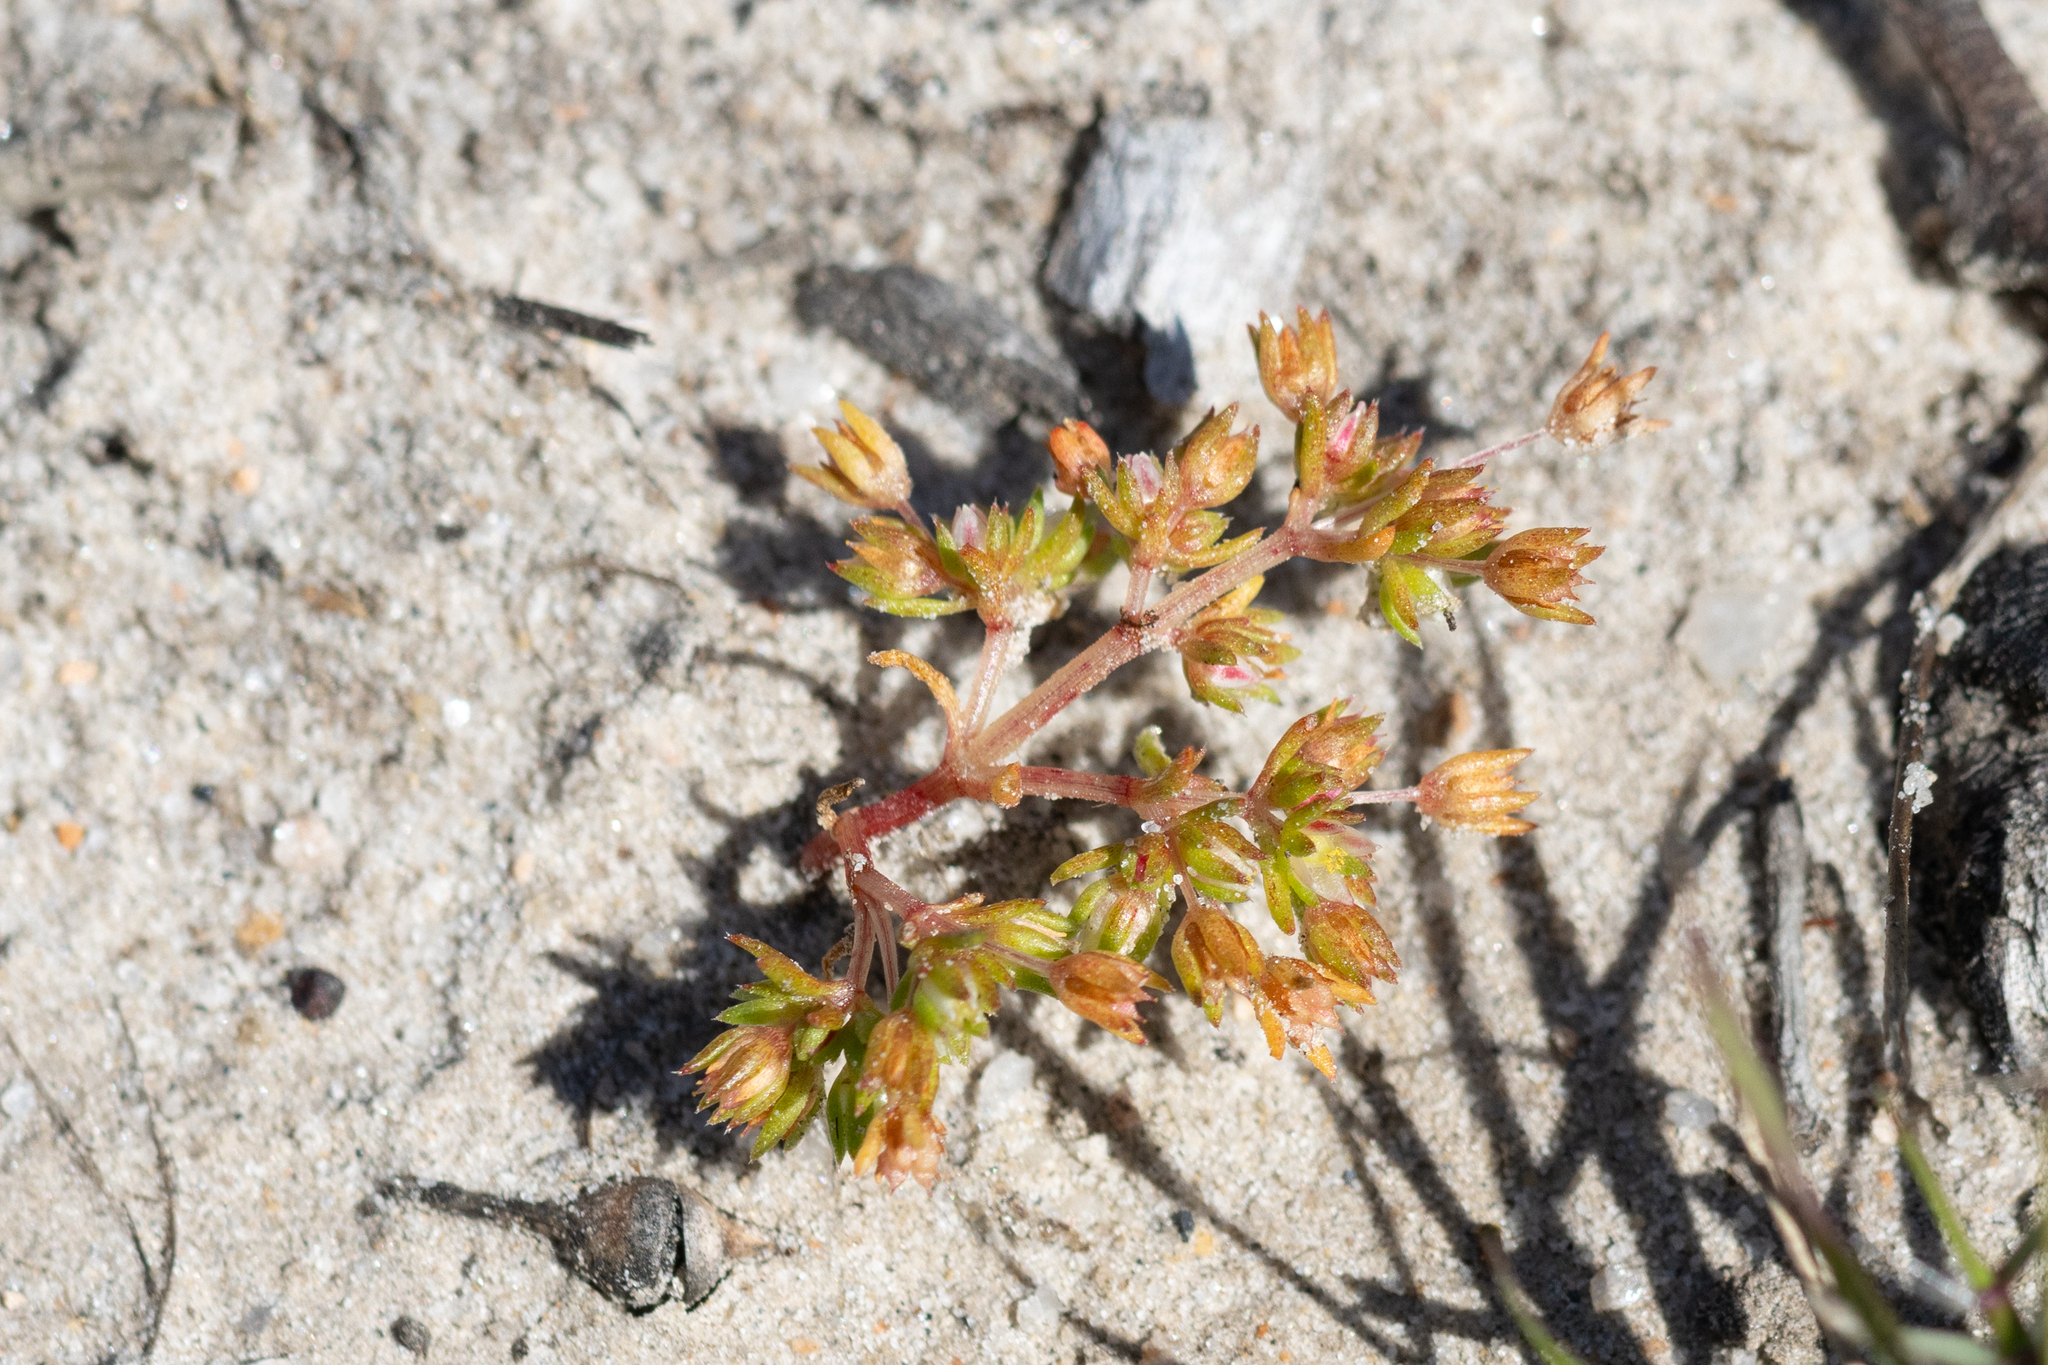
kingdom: Plantae
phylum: Tracheophyta
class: Magnoliopsida
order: Saxifragales
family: Crassulaceae
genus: Crassula
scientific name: Crassula decumbens
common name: Scilly pigmyweed
